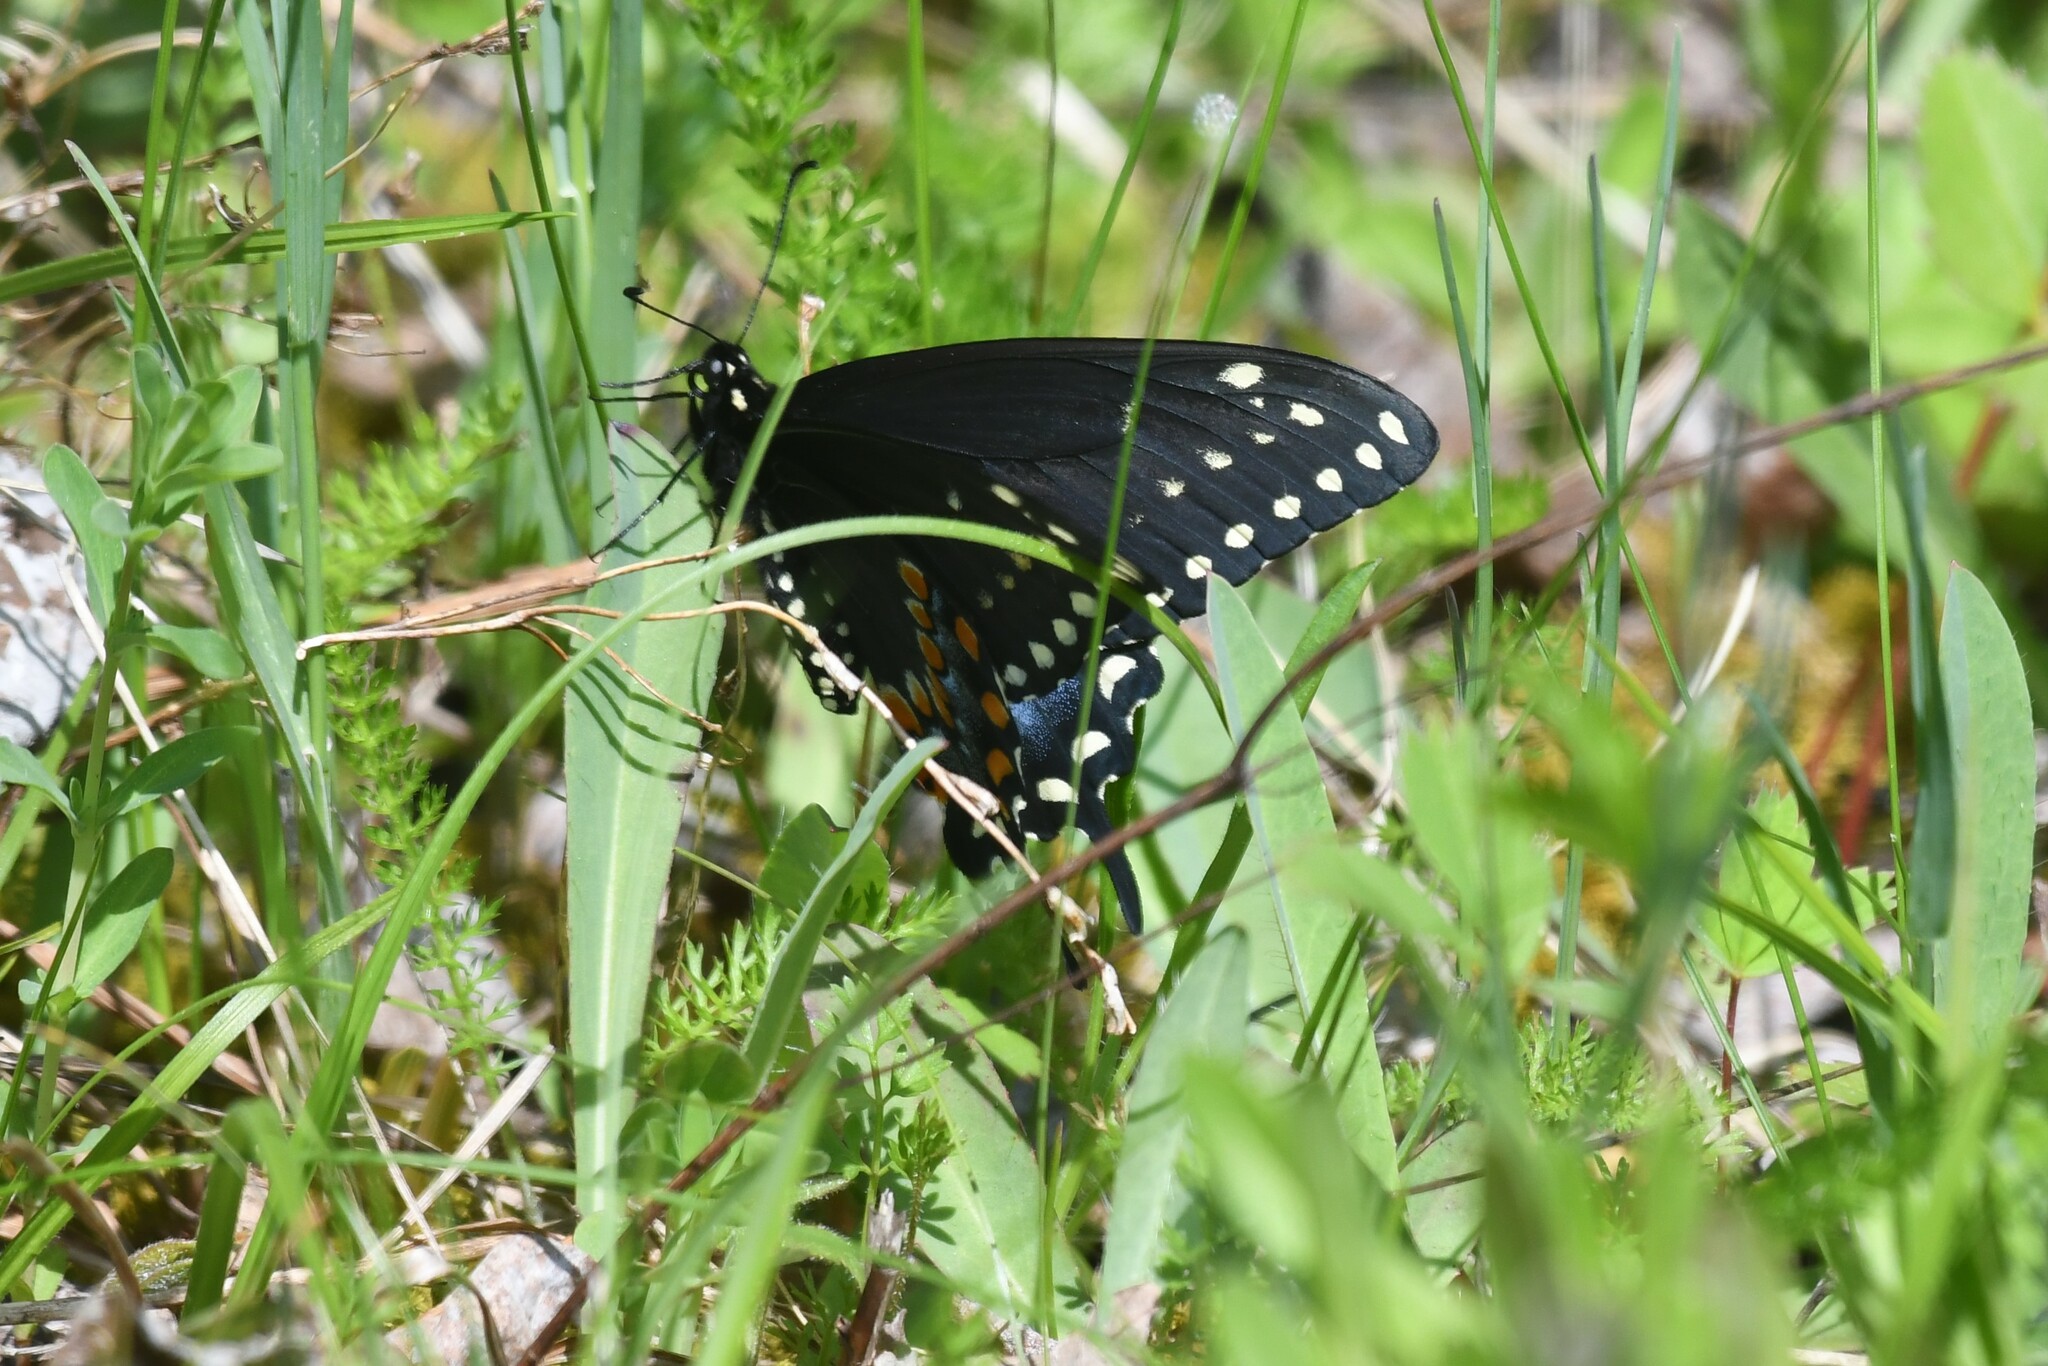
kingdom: Animalia
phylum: Arthropoda
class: Insecta
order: Lepidoptera
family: Papilionidae
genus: Papilio
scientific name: Papilio polyxenes
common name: Black swallowtail
